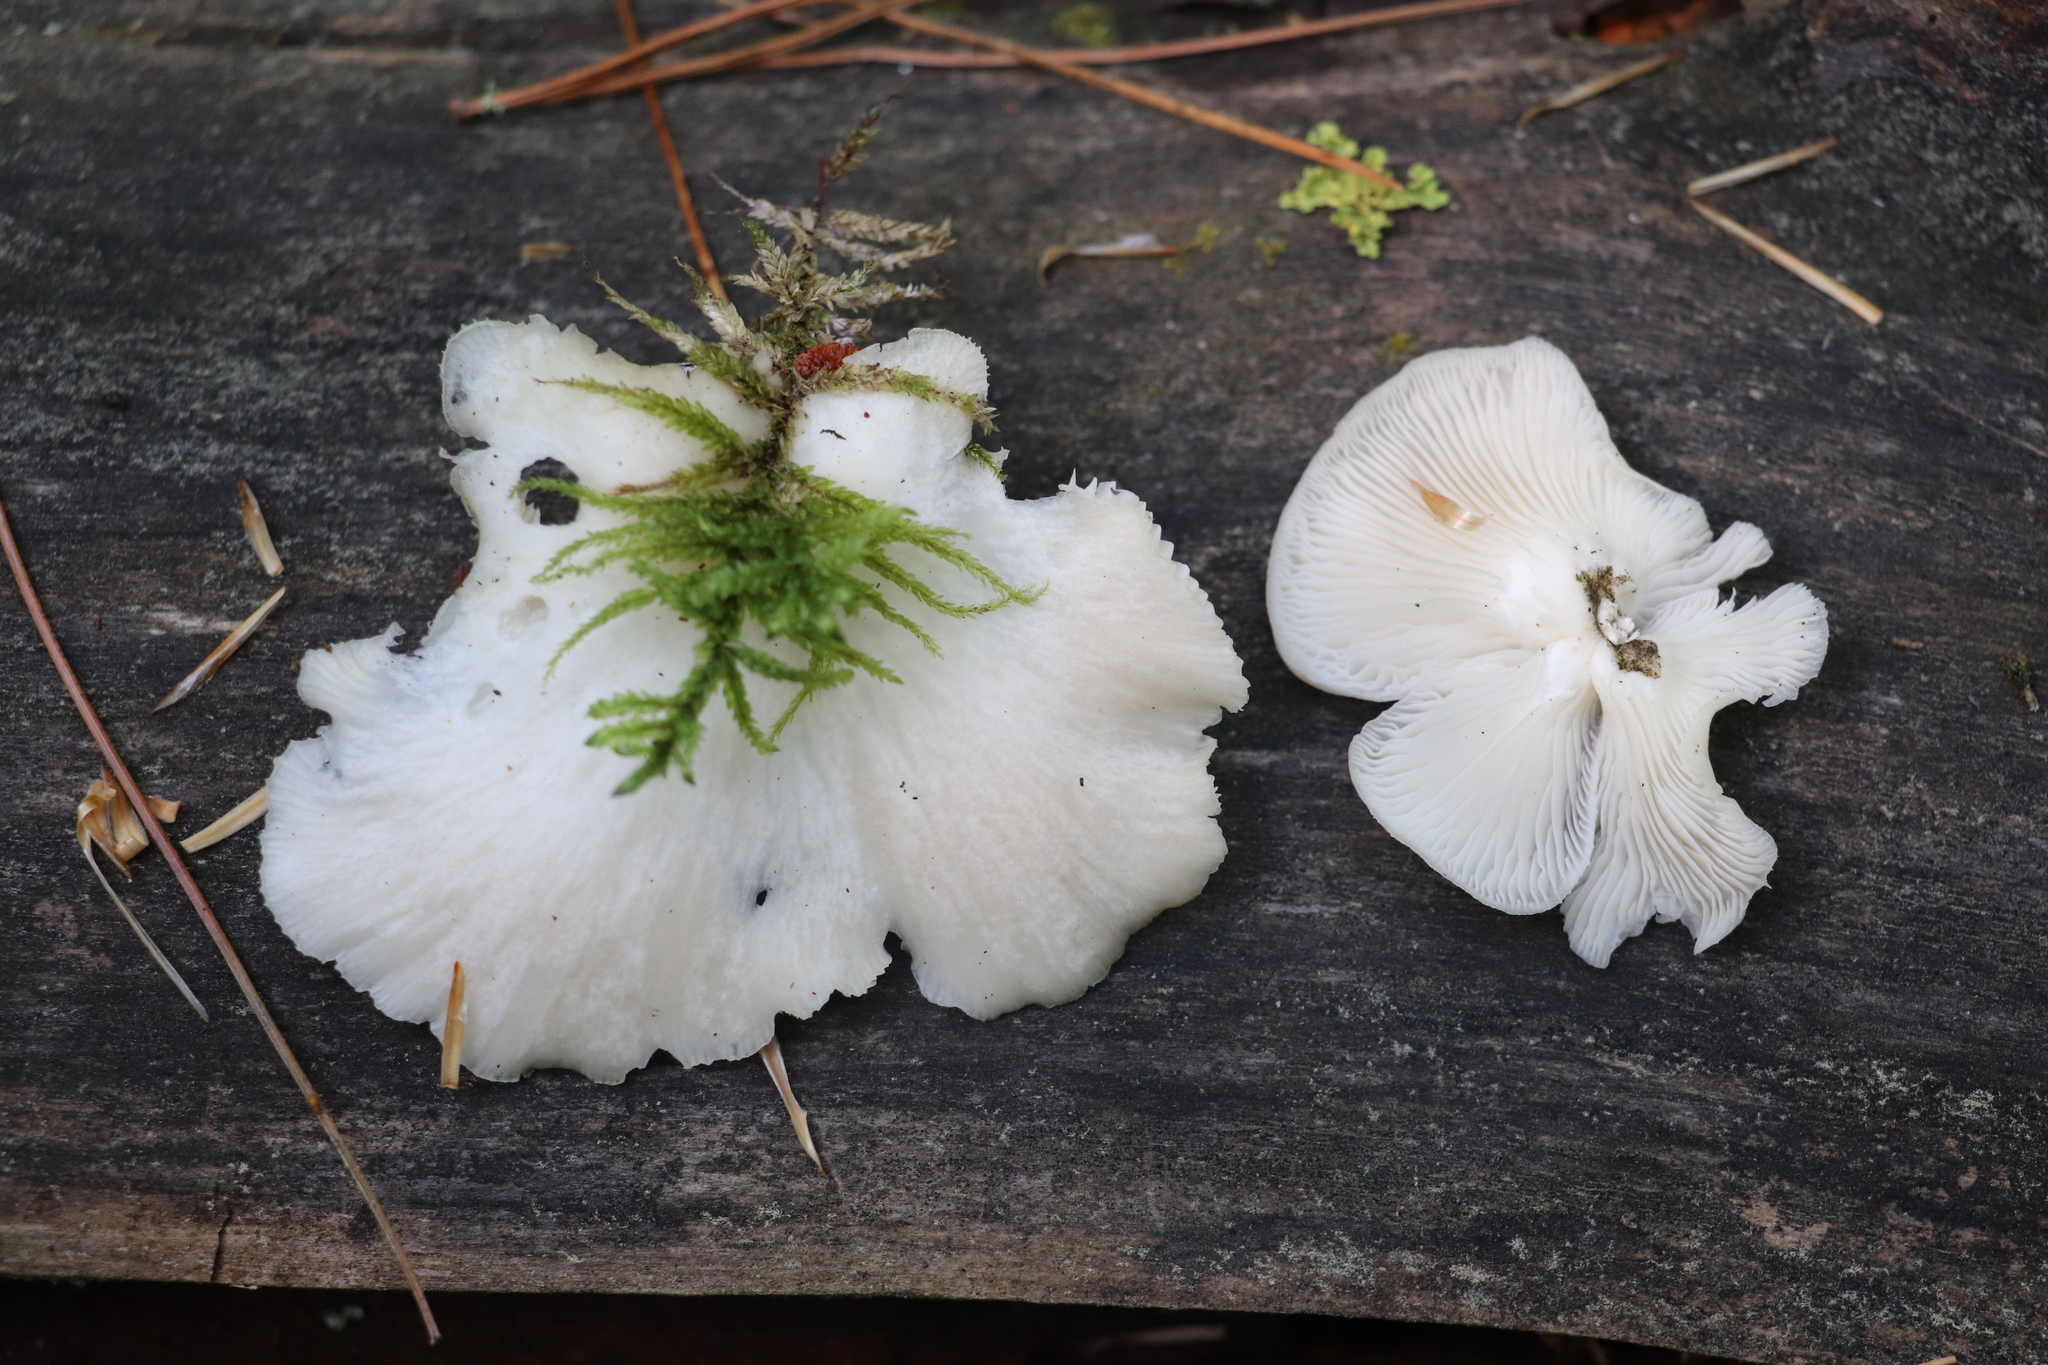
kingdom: Fungi
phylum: Basidiomycota
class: Agaricomycetes
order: Agaricales
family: Pleurotaceae
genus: Pleurotus
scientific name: Pleurotus calyptratus
